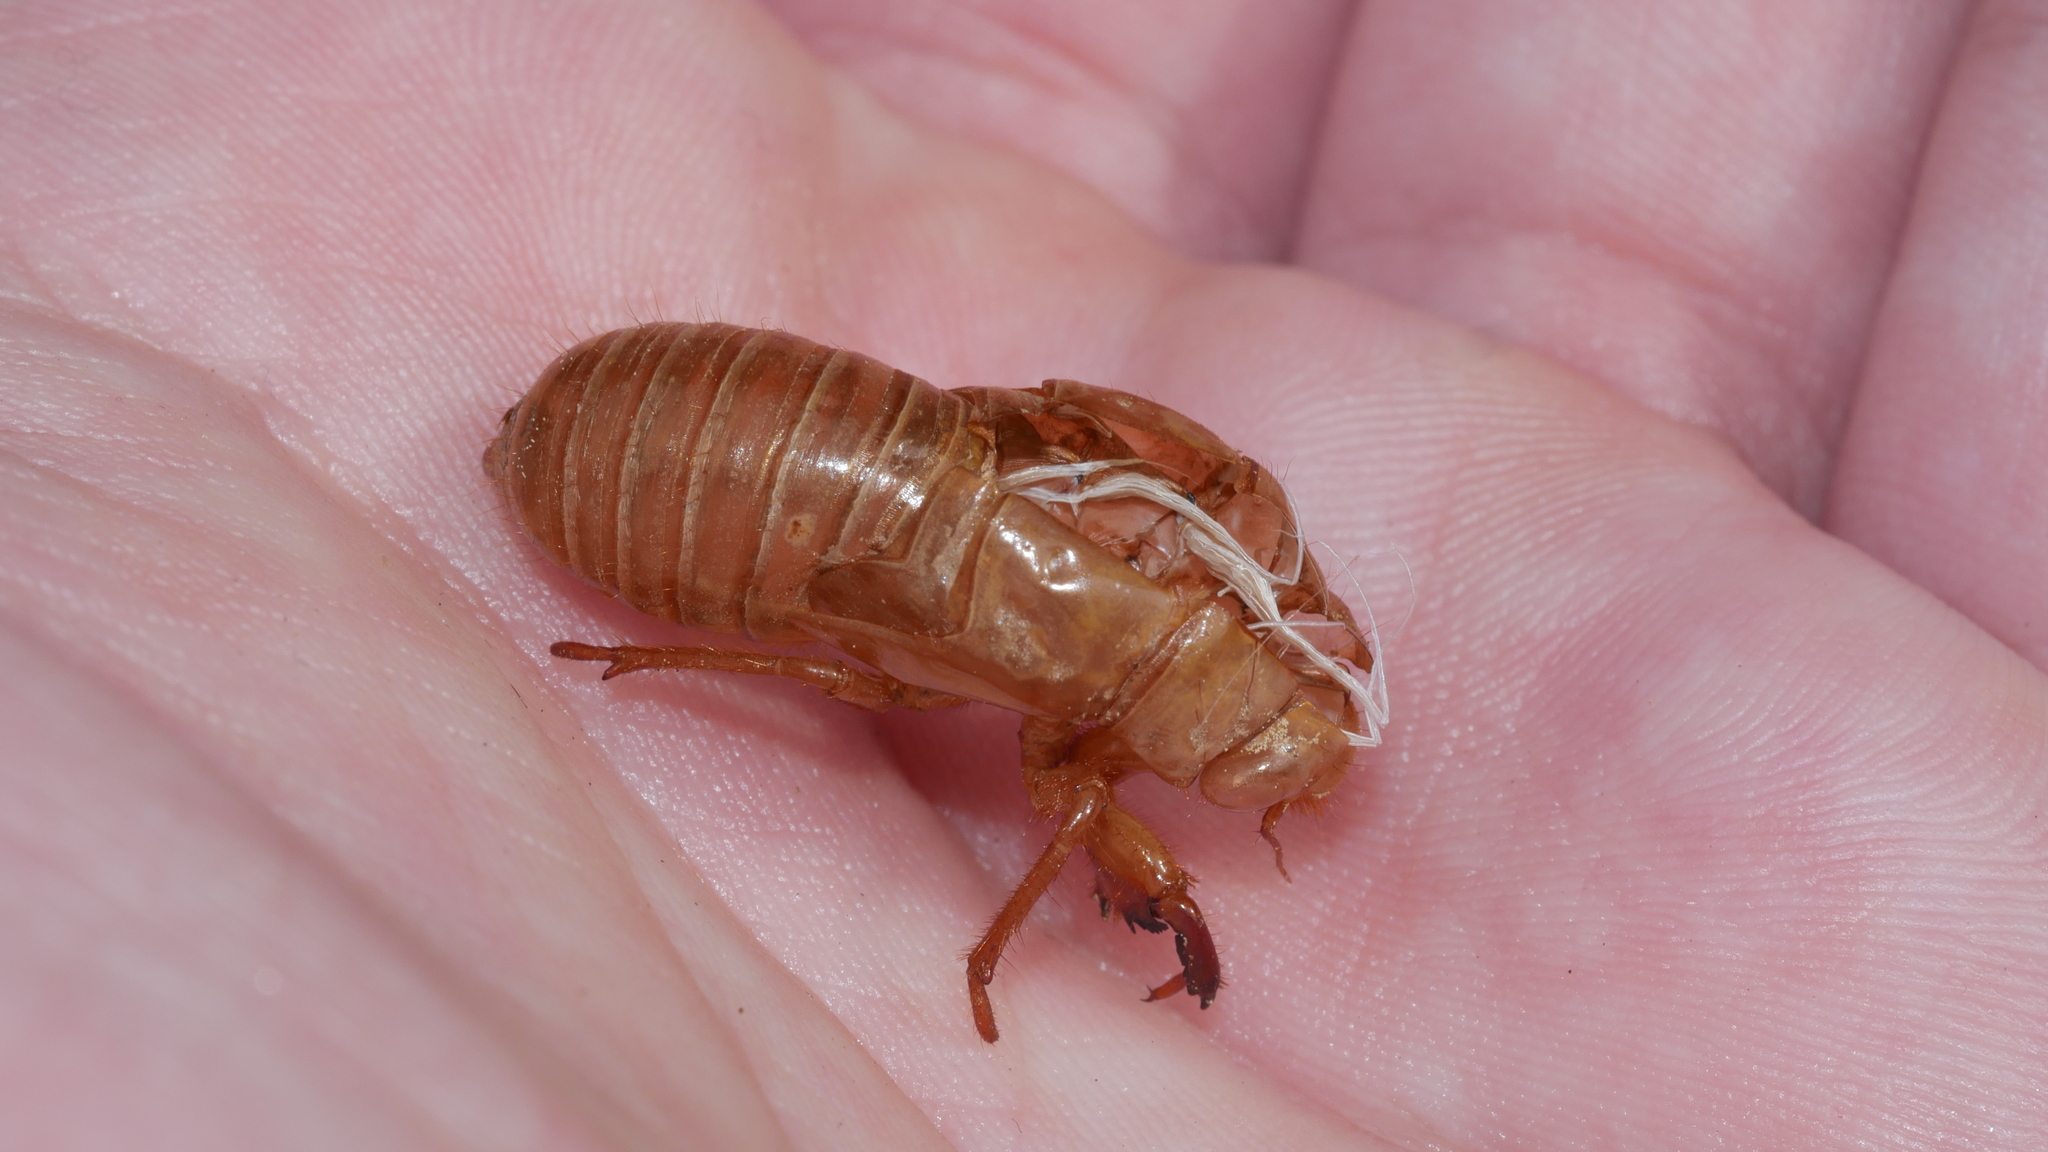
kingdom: Animalia
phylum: Arthropoda
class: Insecta
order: Hemiptera
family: Cicadidae
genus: Magicicada
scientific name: Magicicada
